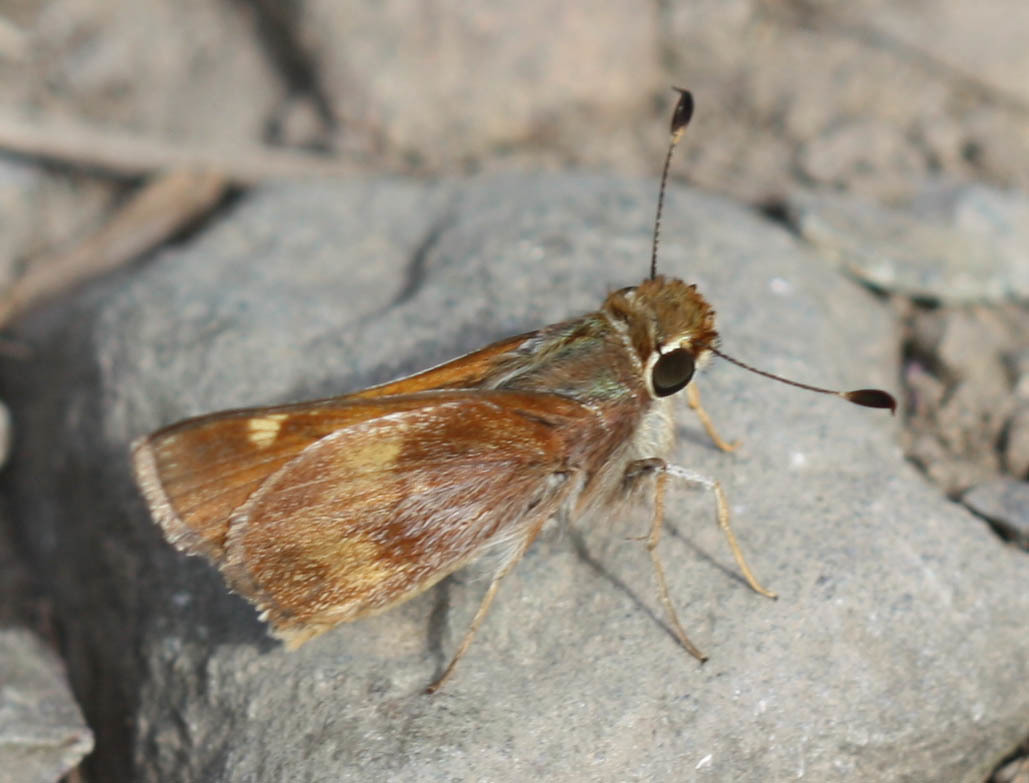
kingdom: Animalia
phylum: Arthropoda
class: Insecta
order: Lepidoptera
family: Hesperiidae
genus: Lon
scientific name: Lon melane
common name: Umber skipper
